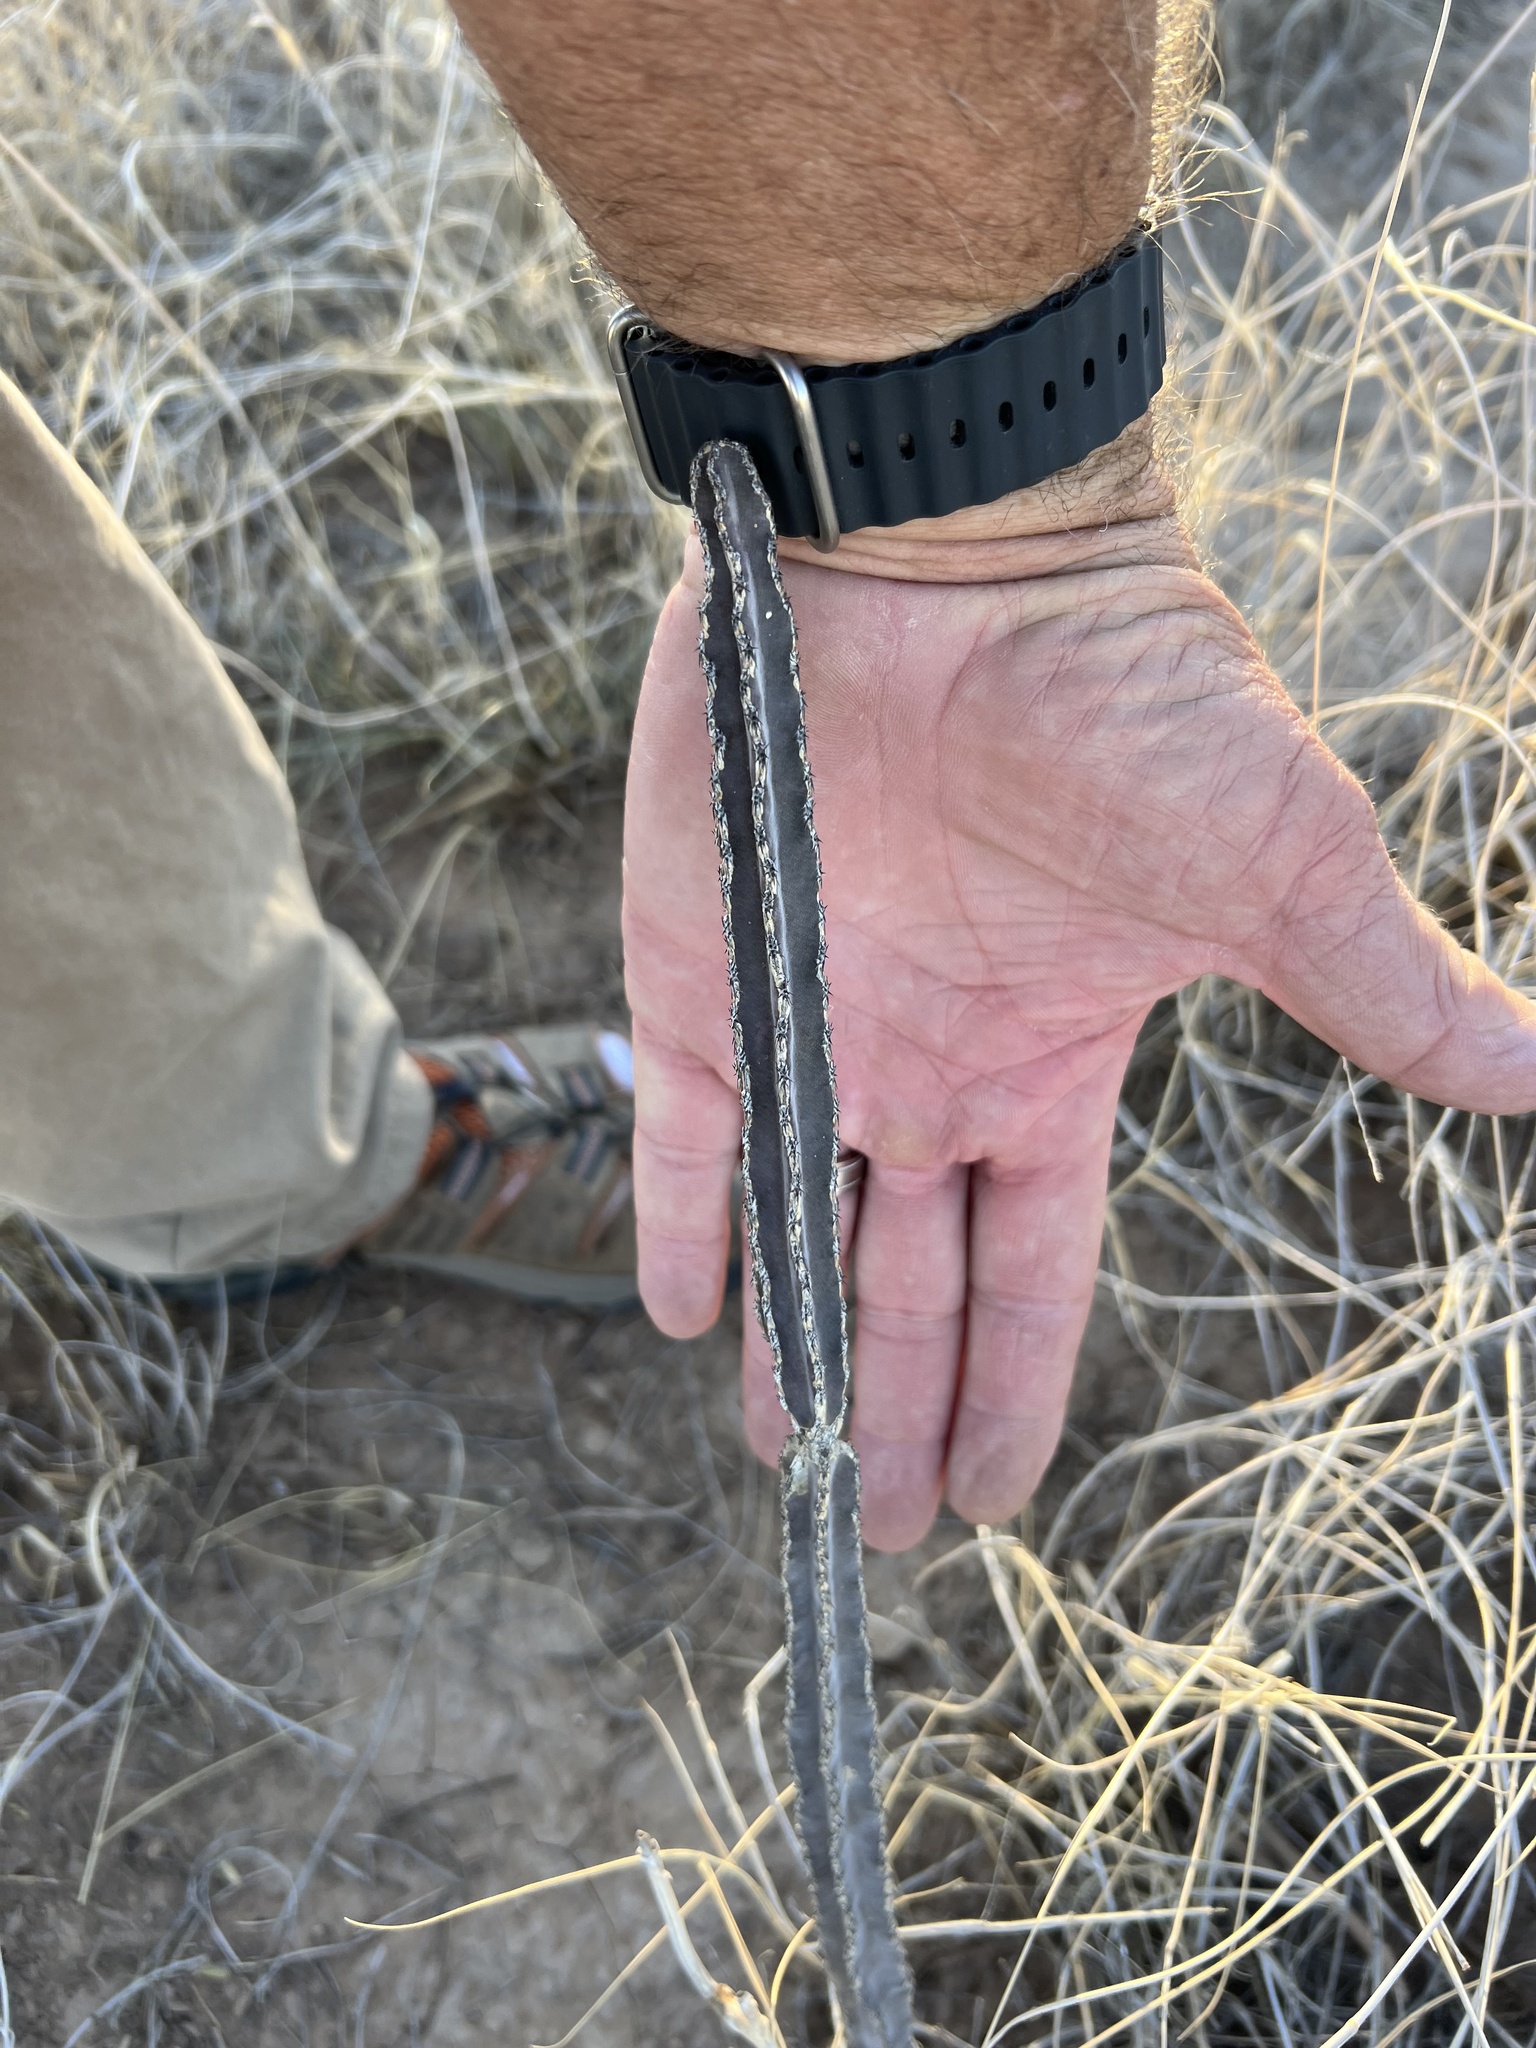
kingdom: Plantae
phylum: Tracheophyta
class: Magnoliopsida
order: Caryophyllales
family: Cactaceae
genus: Peniocereus
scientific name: Peniocereus greggii
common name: Desert night-blooming cereus
